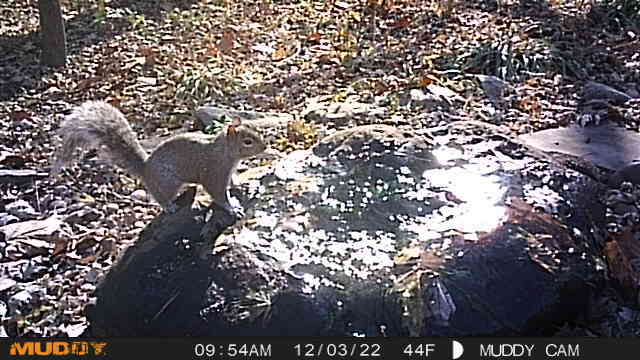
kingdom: Animalia
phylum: Chordata
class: Mammalia
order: Rodentia
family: Sciuridae
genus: Sciurus
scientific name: Sciurus carolinensis
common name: Eastern gray squirrel
